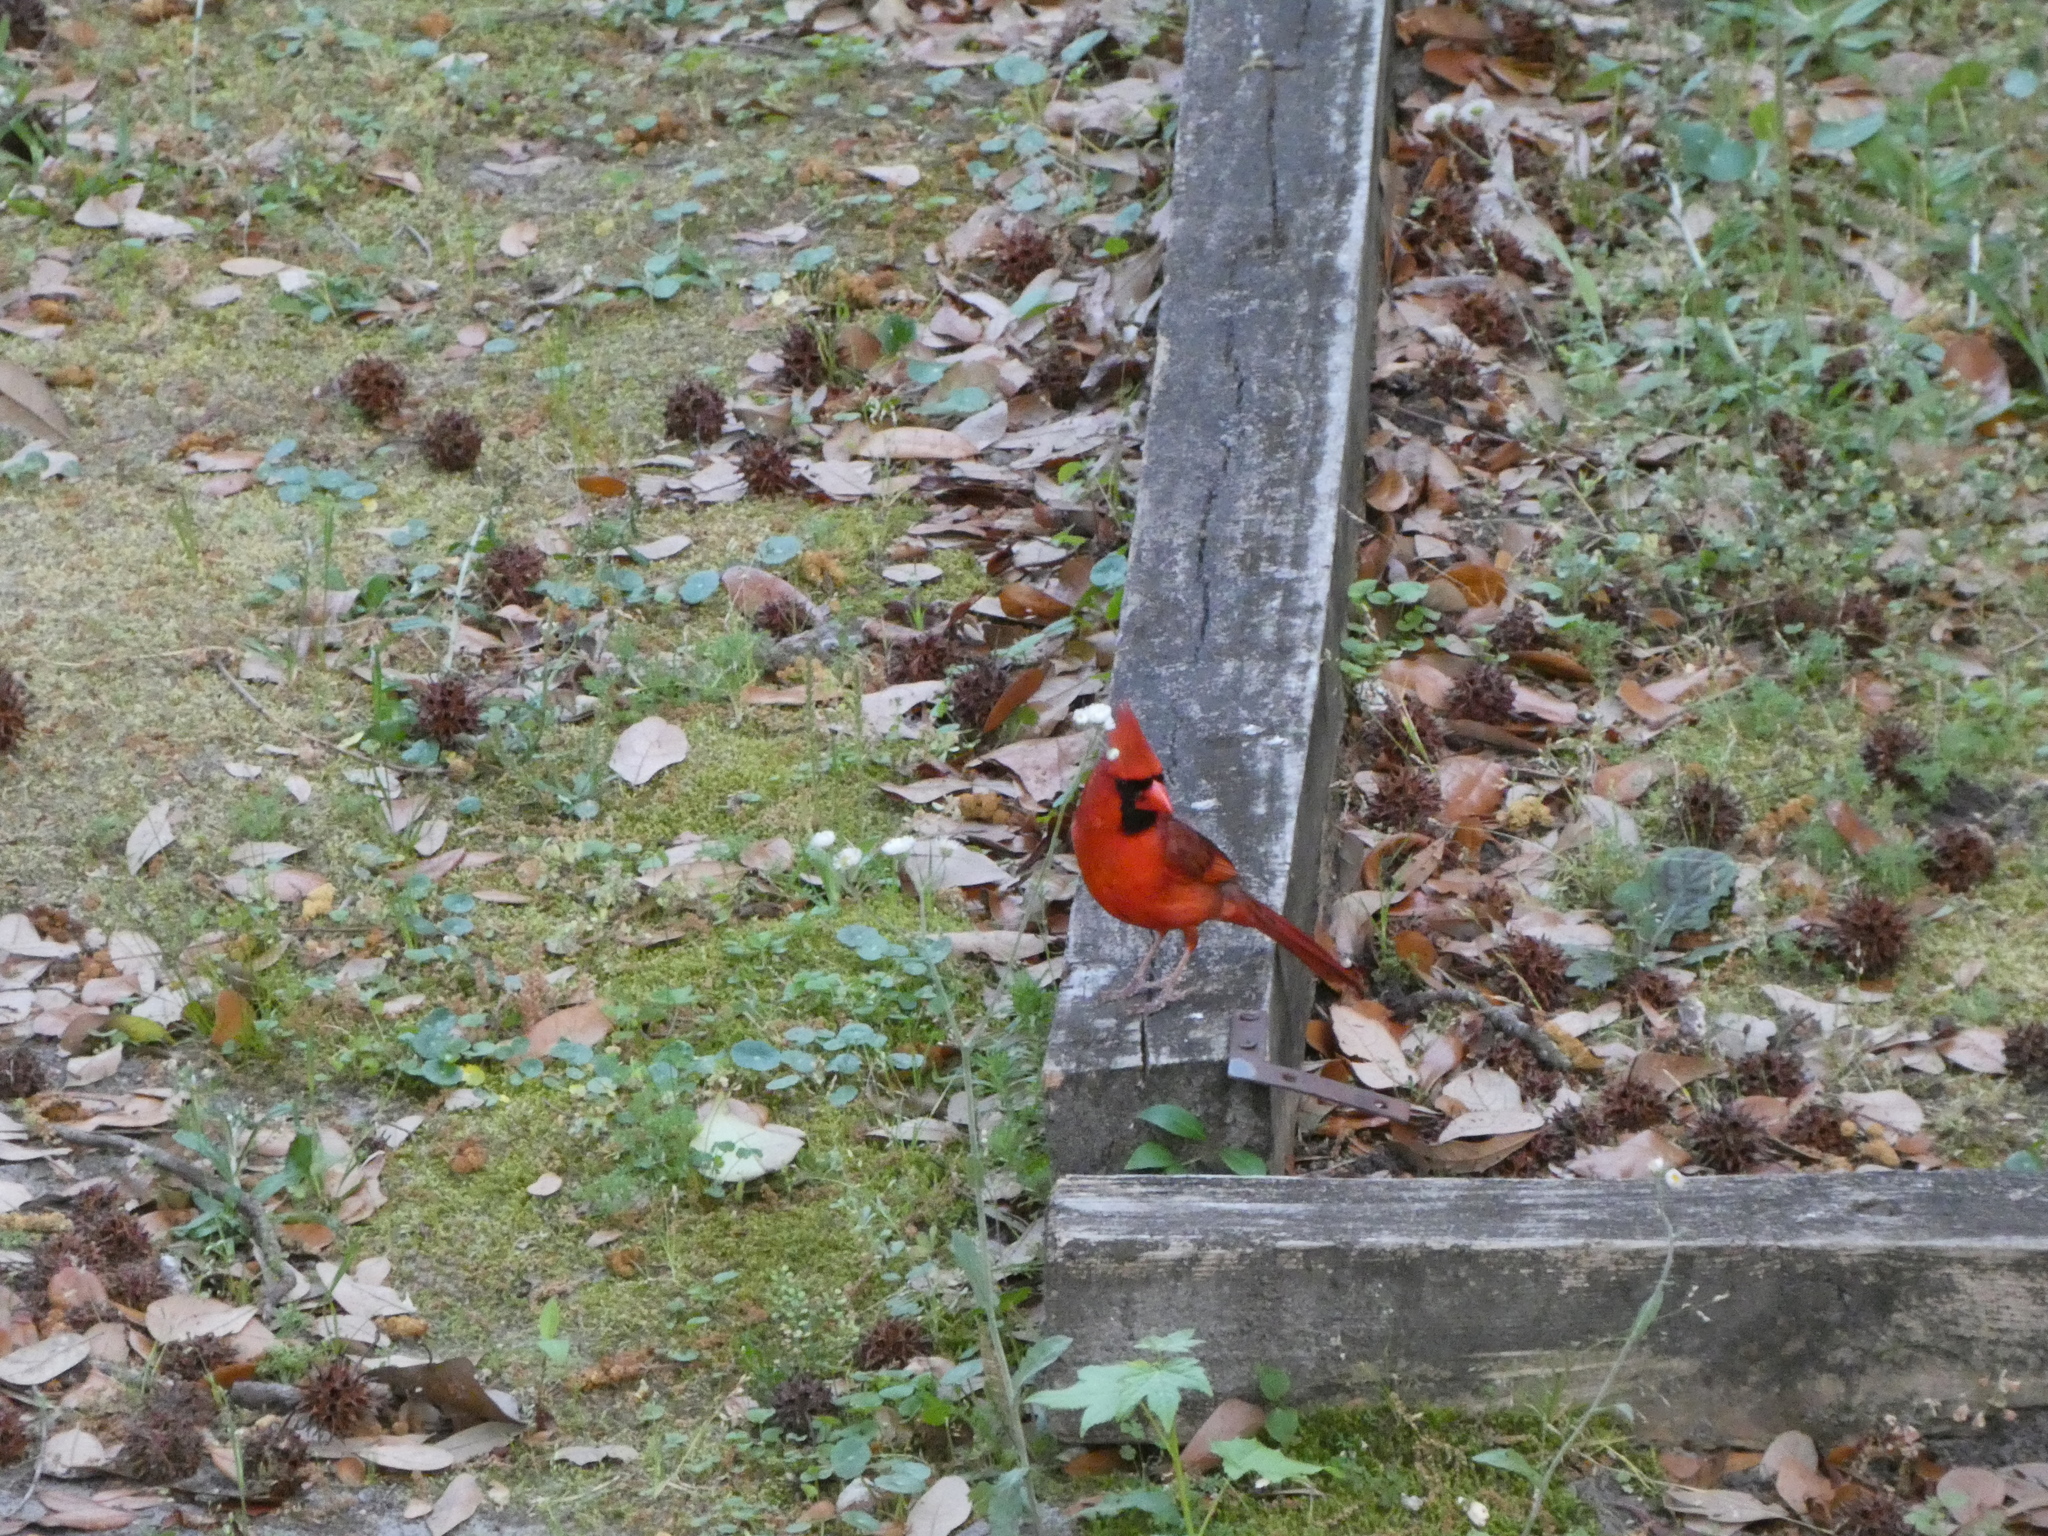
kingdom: Animalia
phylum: Chordata
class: Aves
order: Passeriformes
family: Cardinalidae
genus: Cardinalis
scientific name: Cardinalis cardinalis
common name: Northern cardinal
